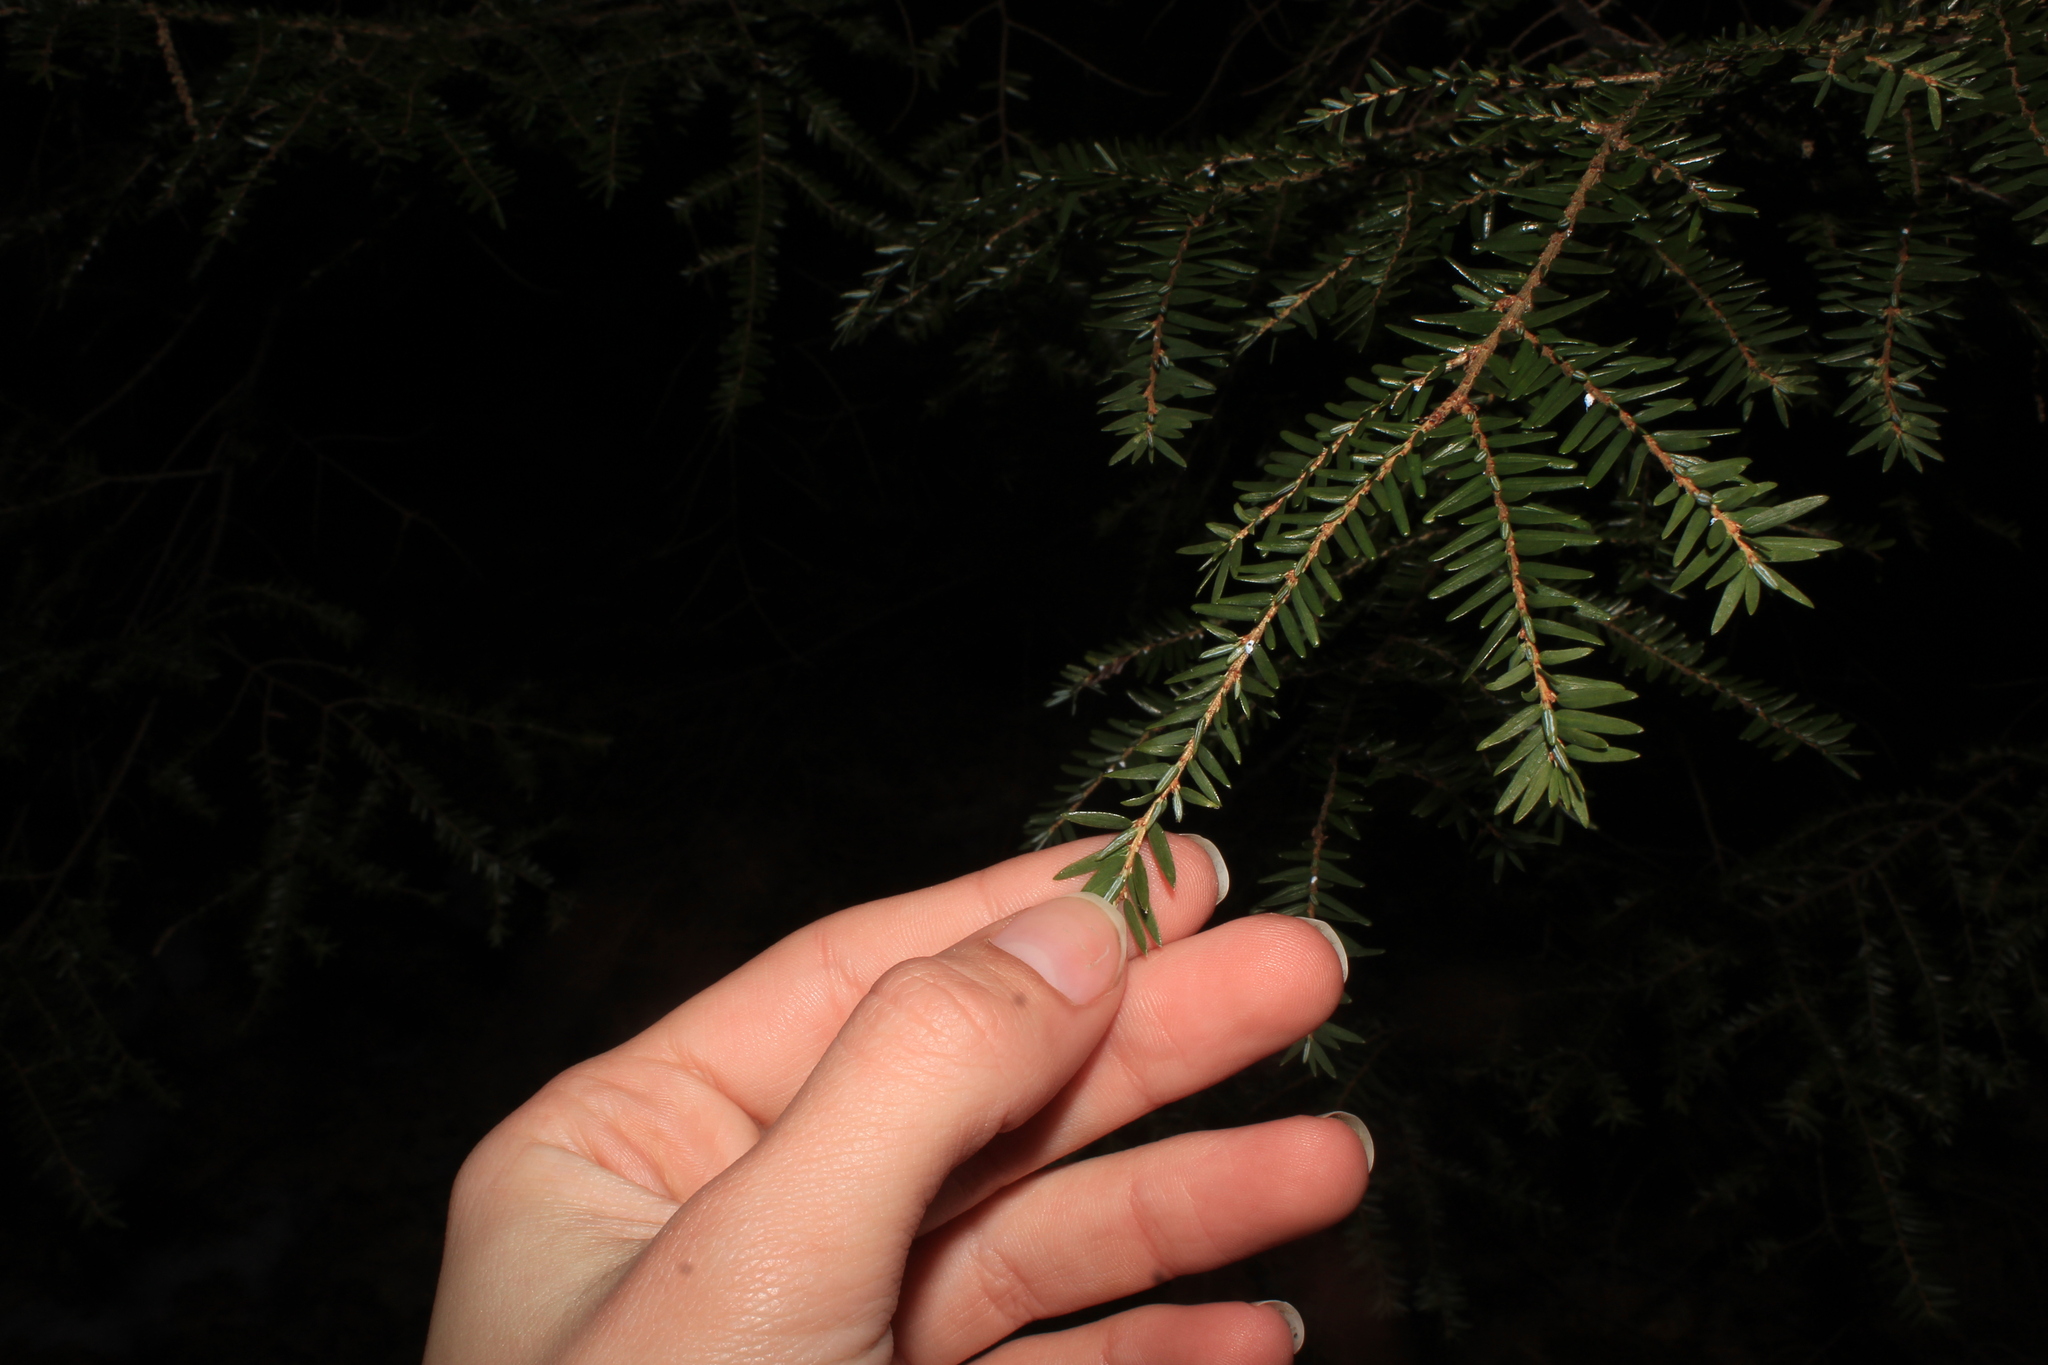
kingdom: Animalia
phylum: Arthropoda
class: Insecta
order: Hemiptera
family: Adelgidae
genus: Adelges
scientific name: Adelges tsugae
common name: Hemlock woolly adelgid
